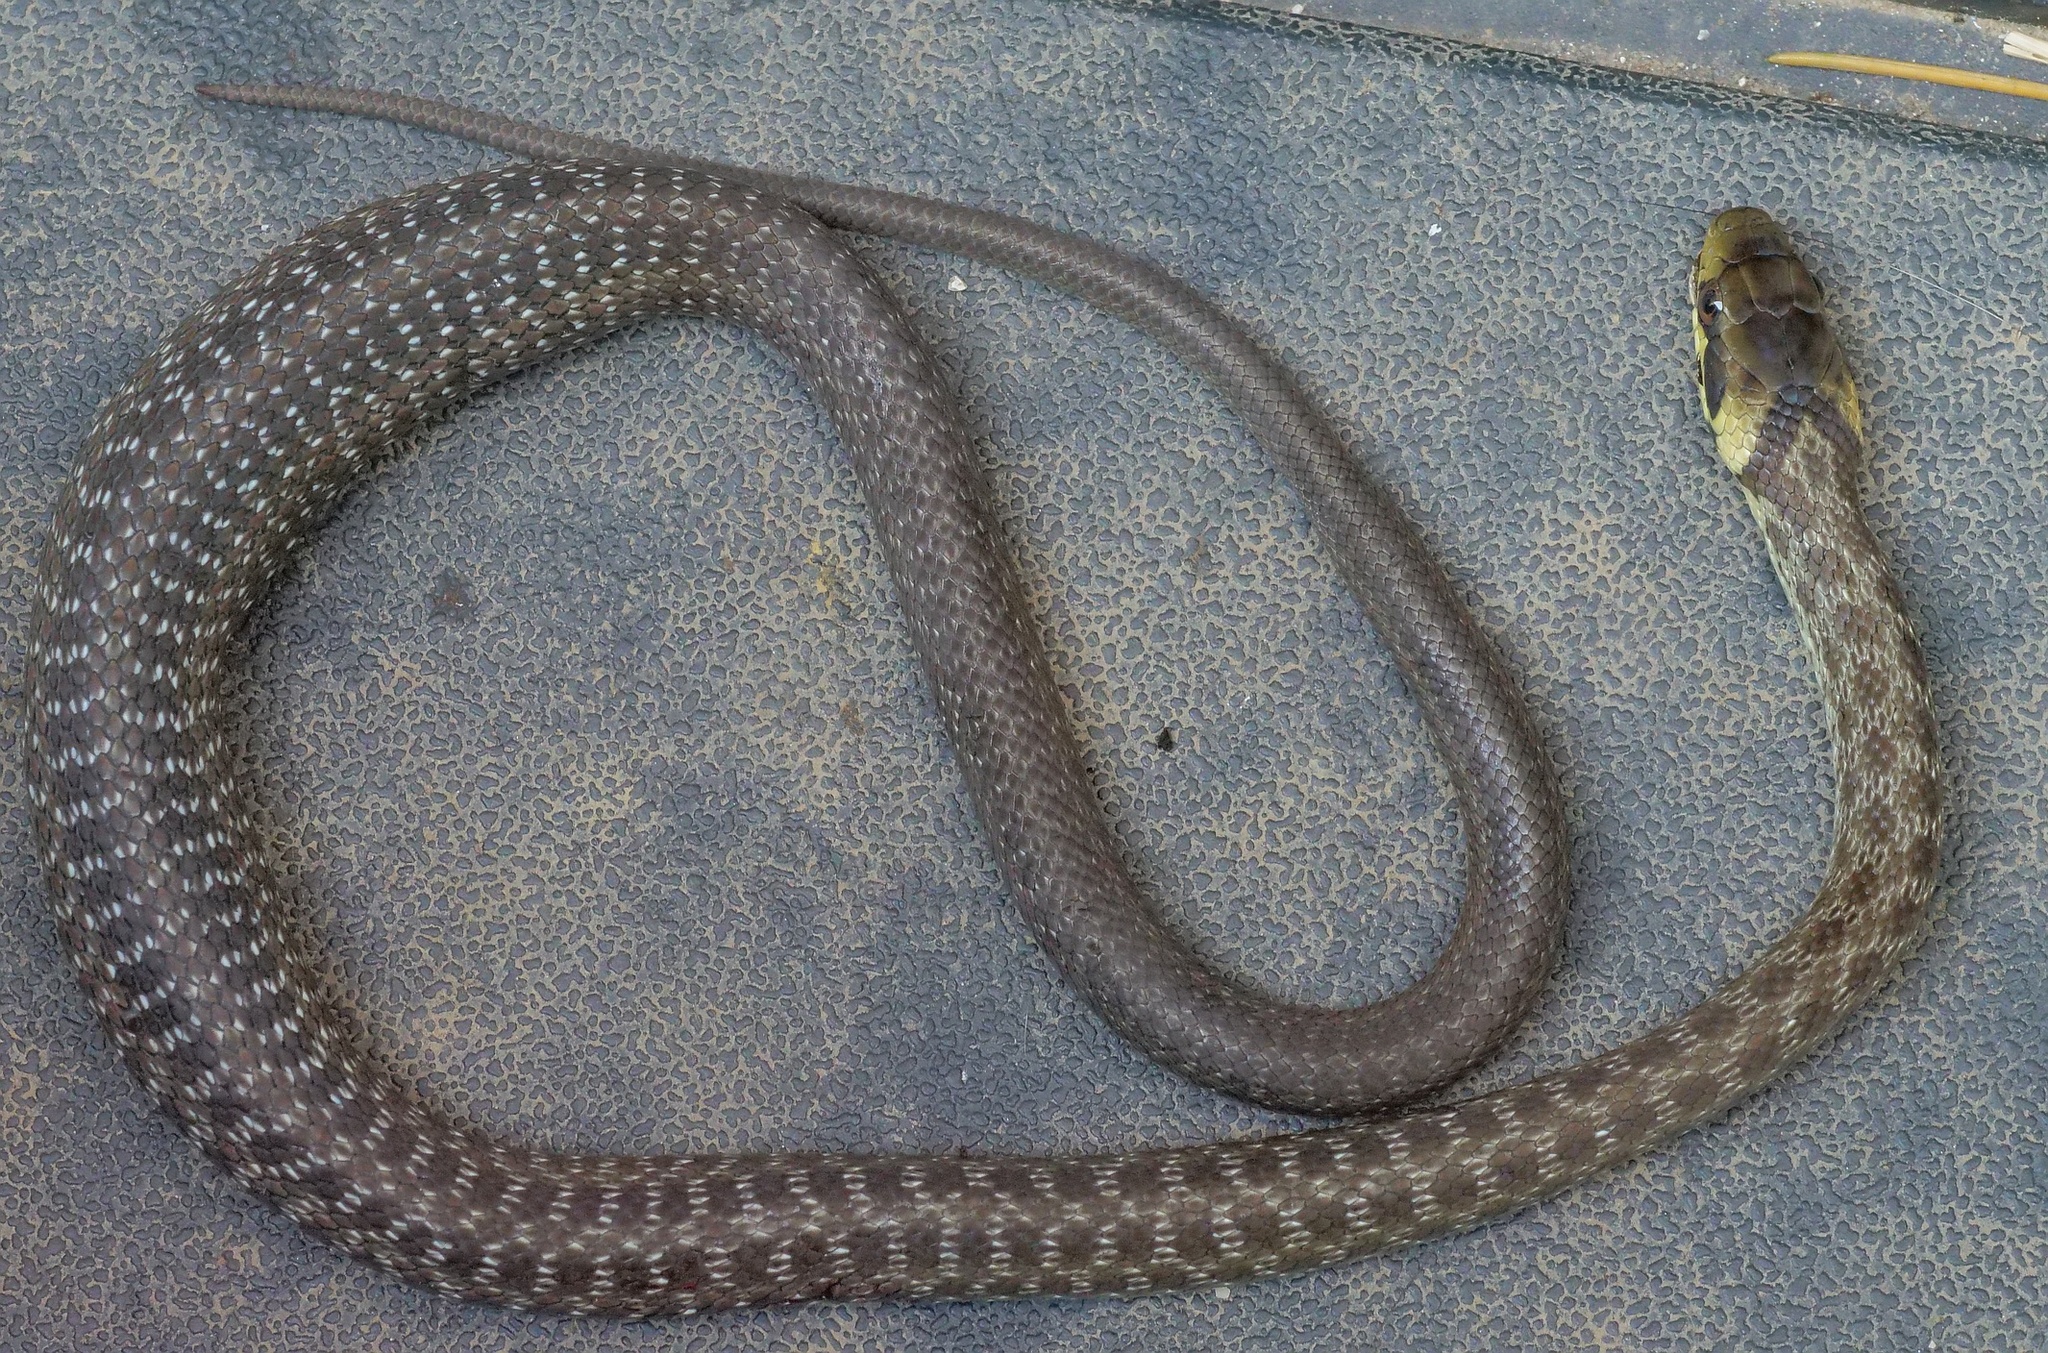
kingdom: Animalia
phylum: Chordata
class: Squamata
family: Colubridae
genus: Zamenis
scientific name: Zamenis longissimus
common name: Aesculapean snake
